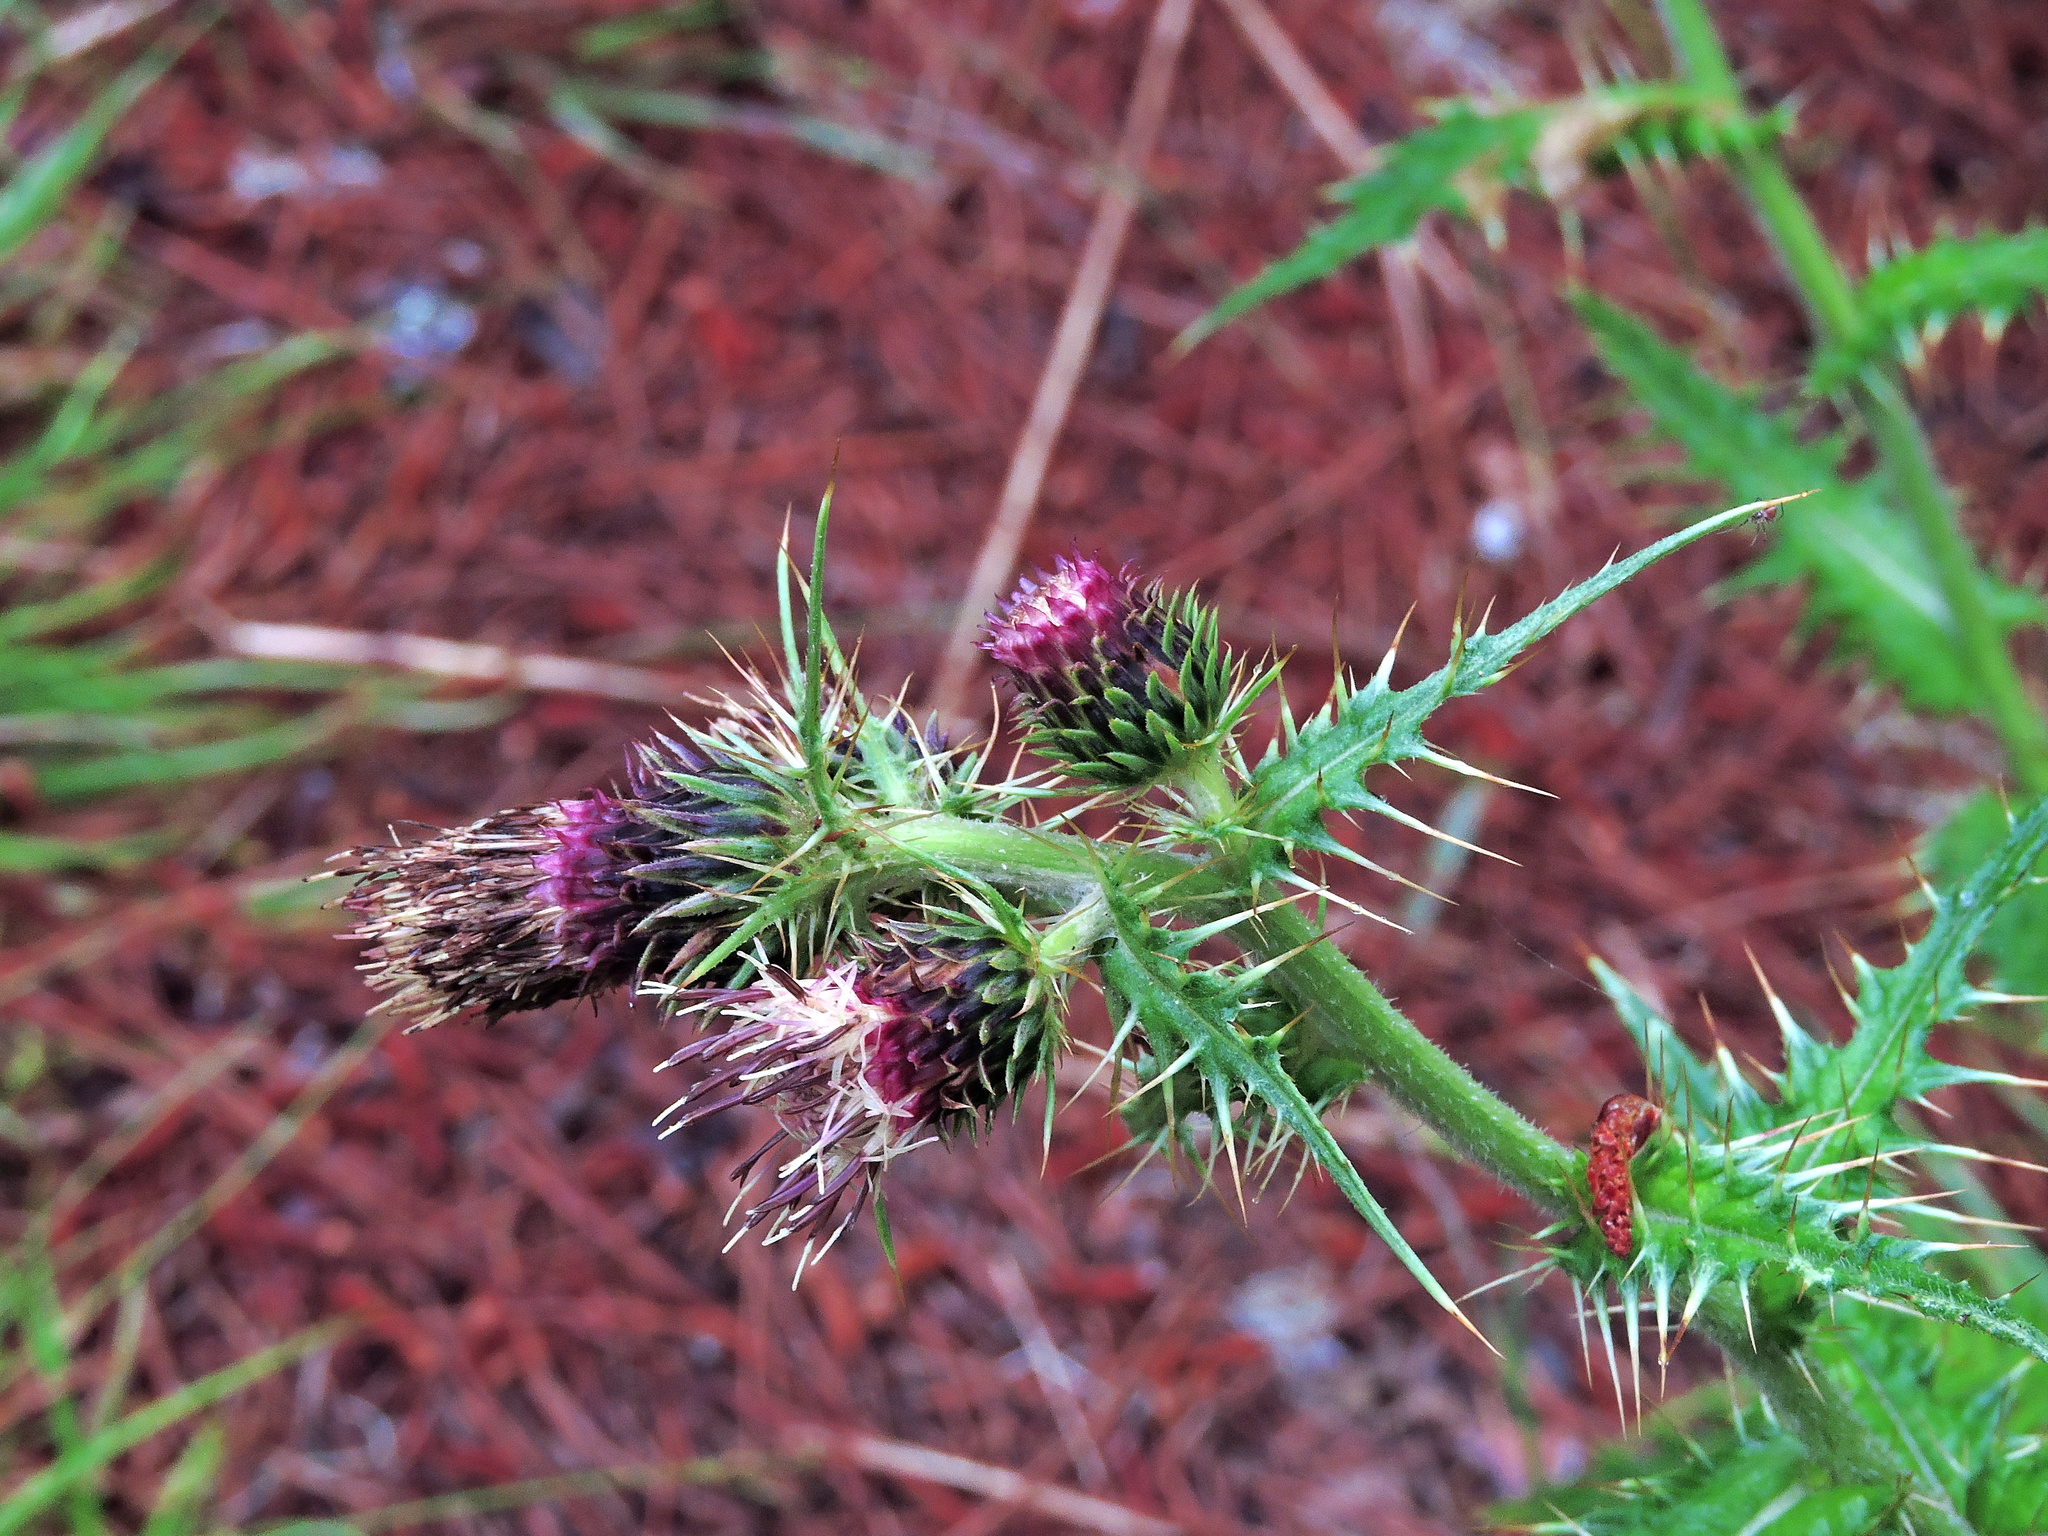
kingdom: Plantae
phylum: Tracheophyta
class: Magnoliopsida
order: Asterales
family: Asteraceae
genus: Cirsium
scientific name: Cirsium arisanense
